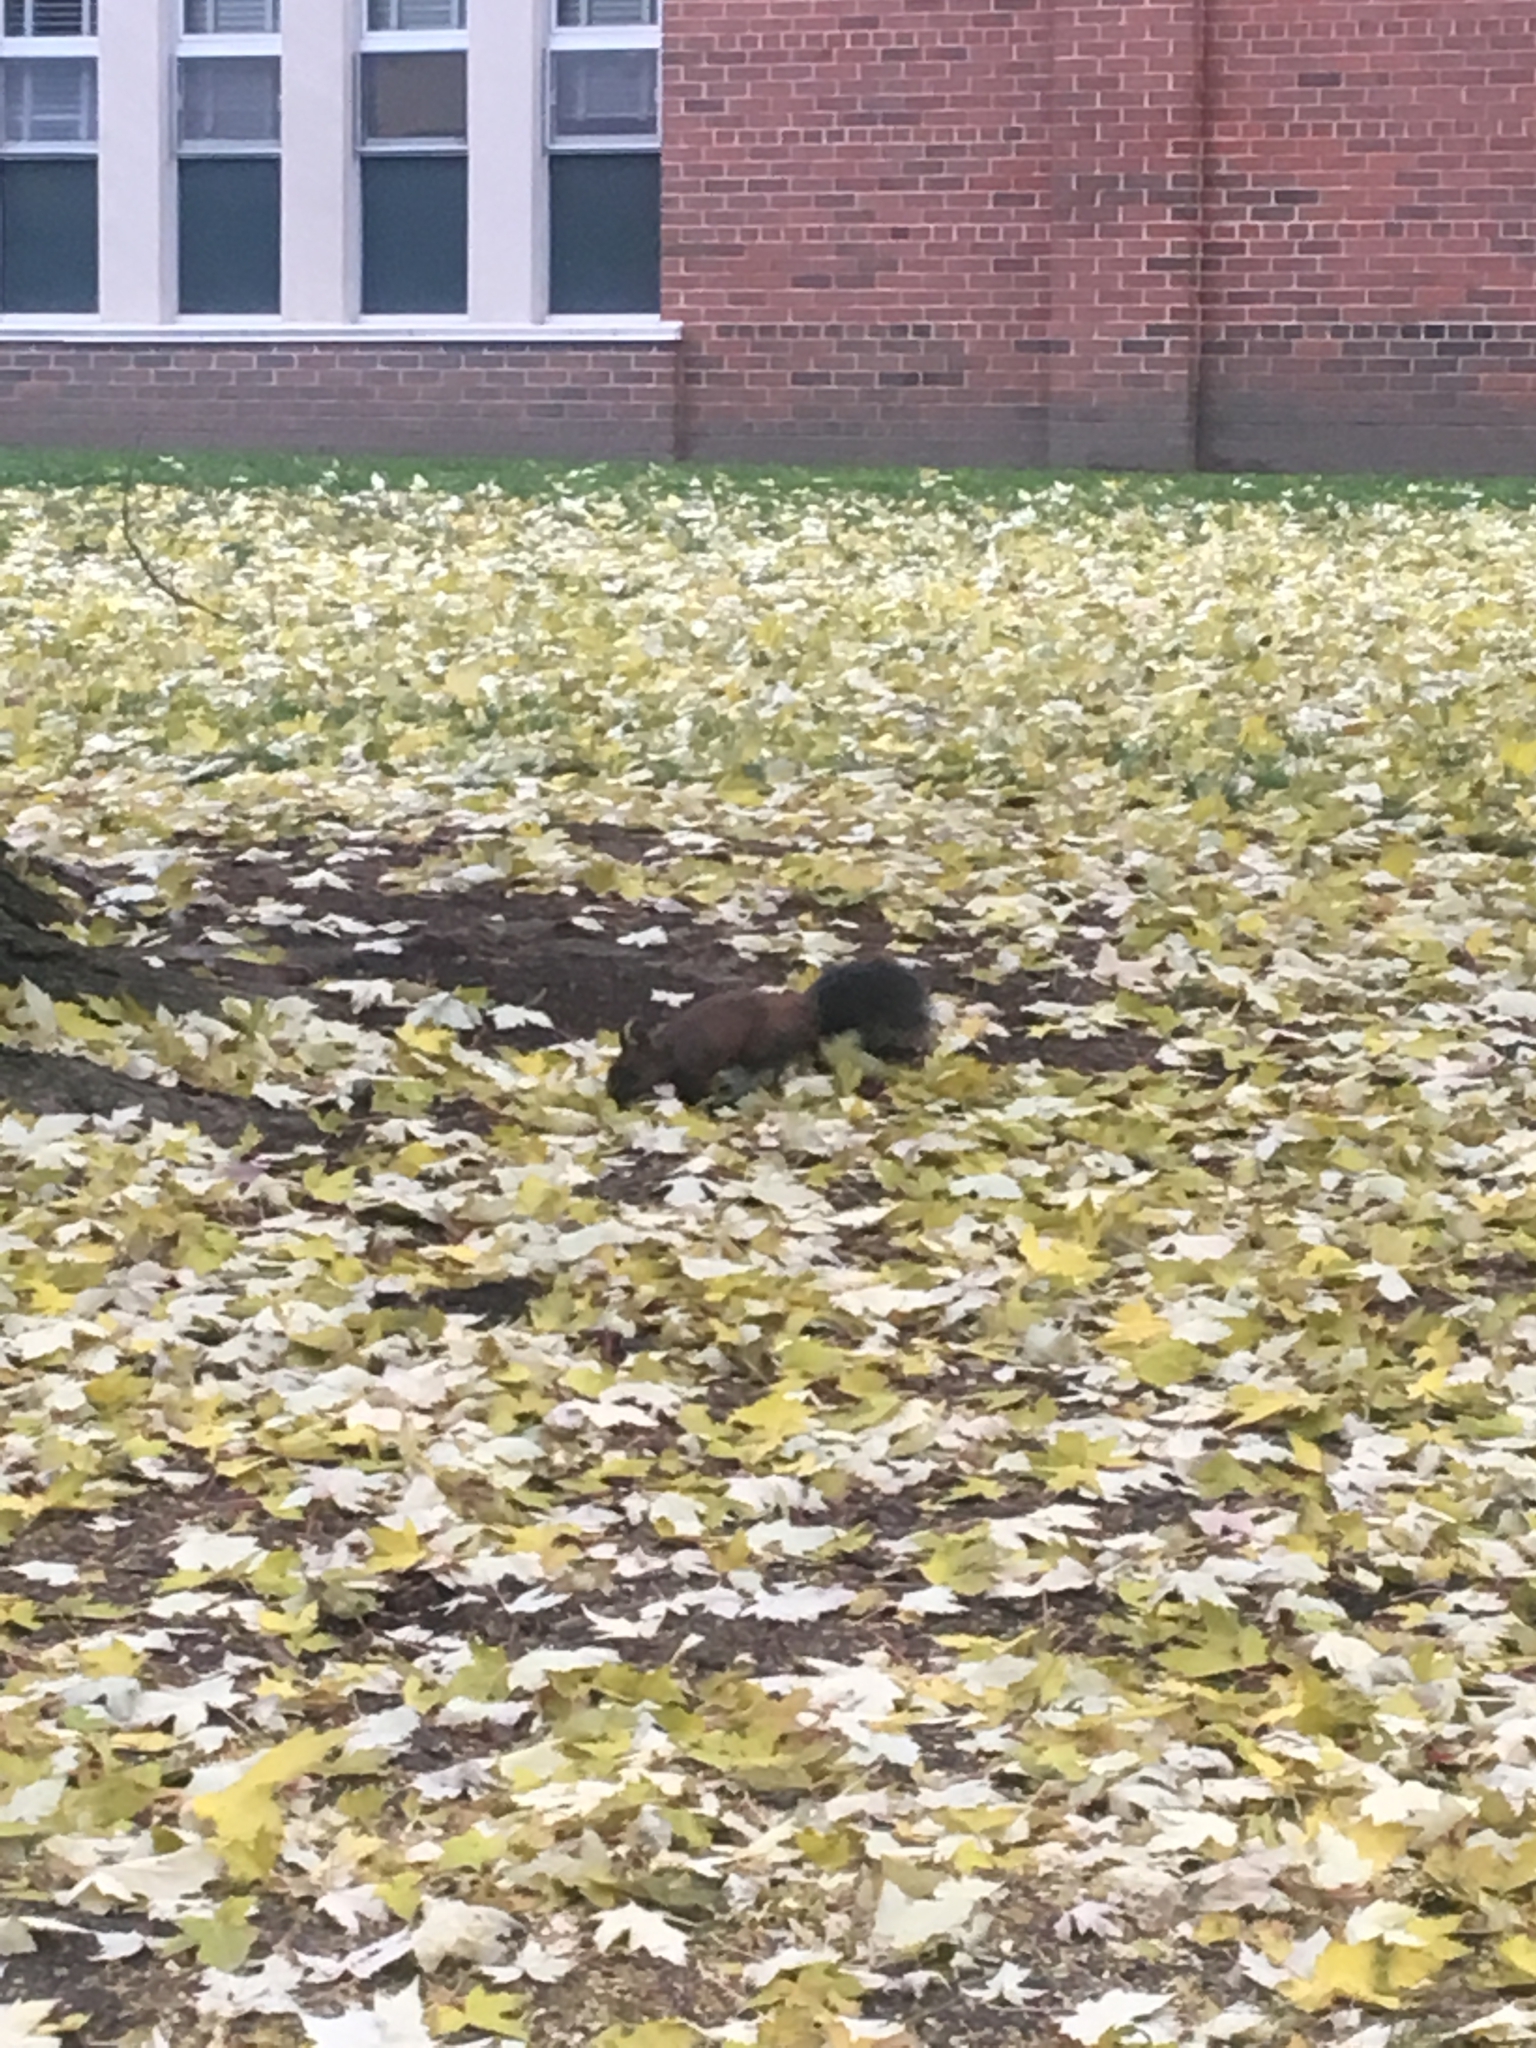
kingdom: Animalia
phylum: Chordata
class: Mammalia
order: Rodentia
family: Sciuridae
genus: Sciurus
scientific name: Sciurus carolinensis
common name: Eastern gray squirrel
